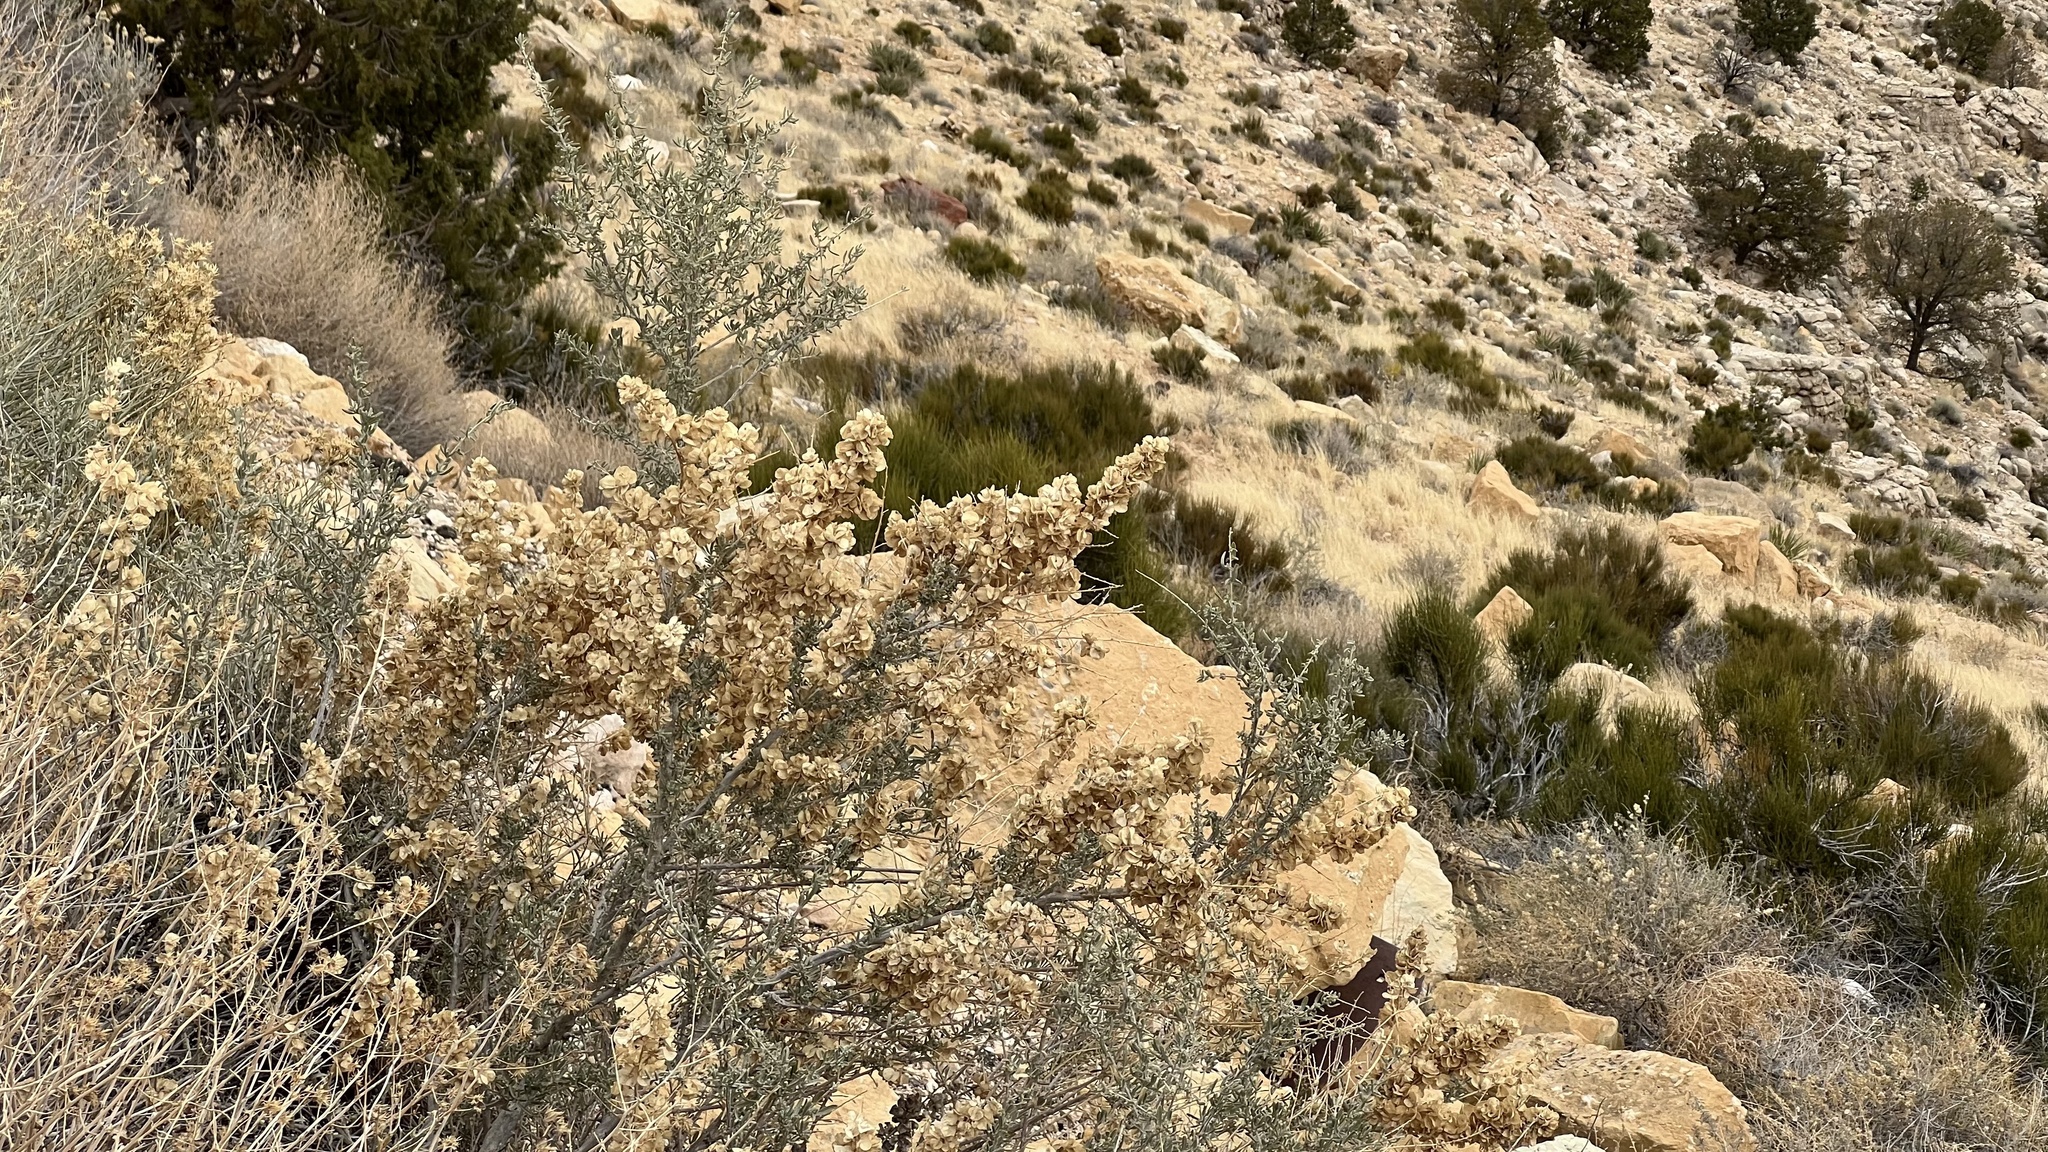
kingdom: Plantae
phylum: Tracheophyta
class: Magnoliopsida
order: Caryophyllales
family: Amaranthaceae
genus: Atriplex
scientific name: Atriplex canescens
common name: Four-wing saltbush
